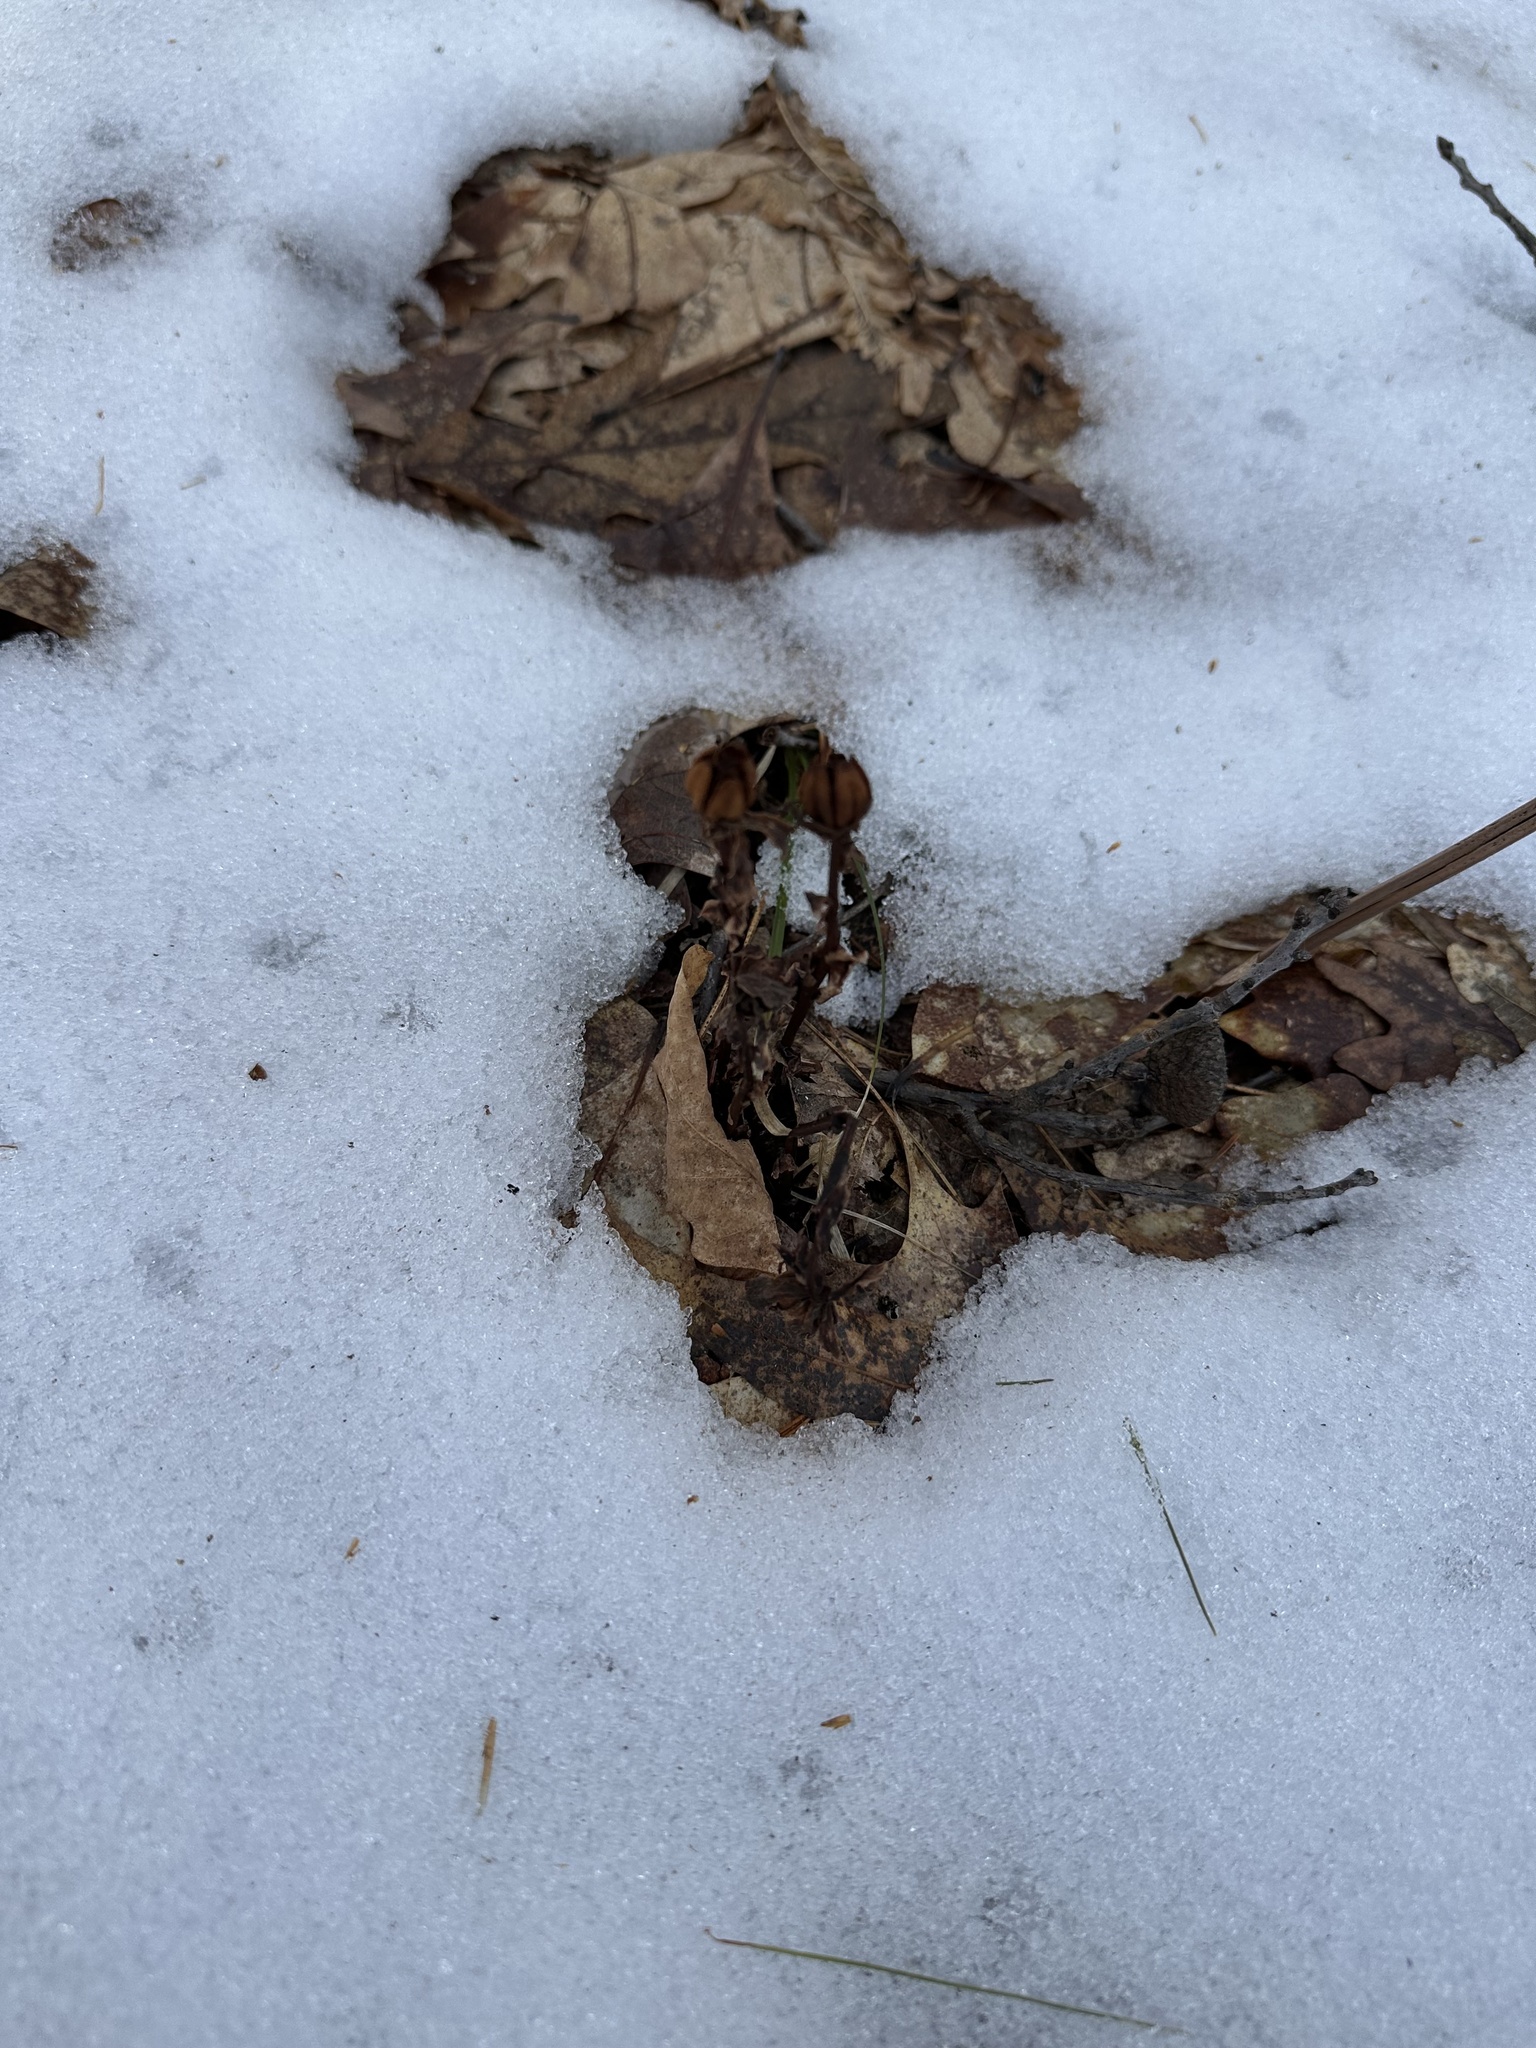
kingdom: Plantae
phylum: Tracheophyta
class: Magnoliopsida
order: Ericales
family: Ericaceae
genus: Monotropa
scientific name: Monotropa uniflora
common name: Convulsion root
